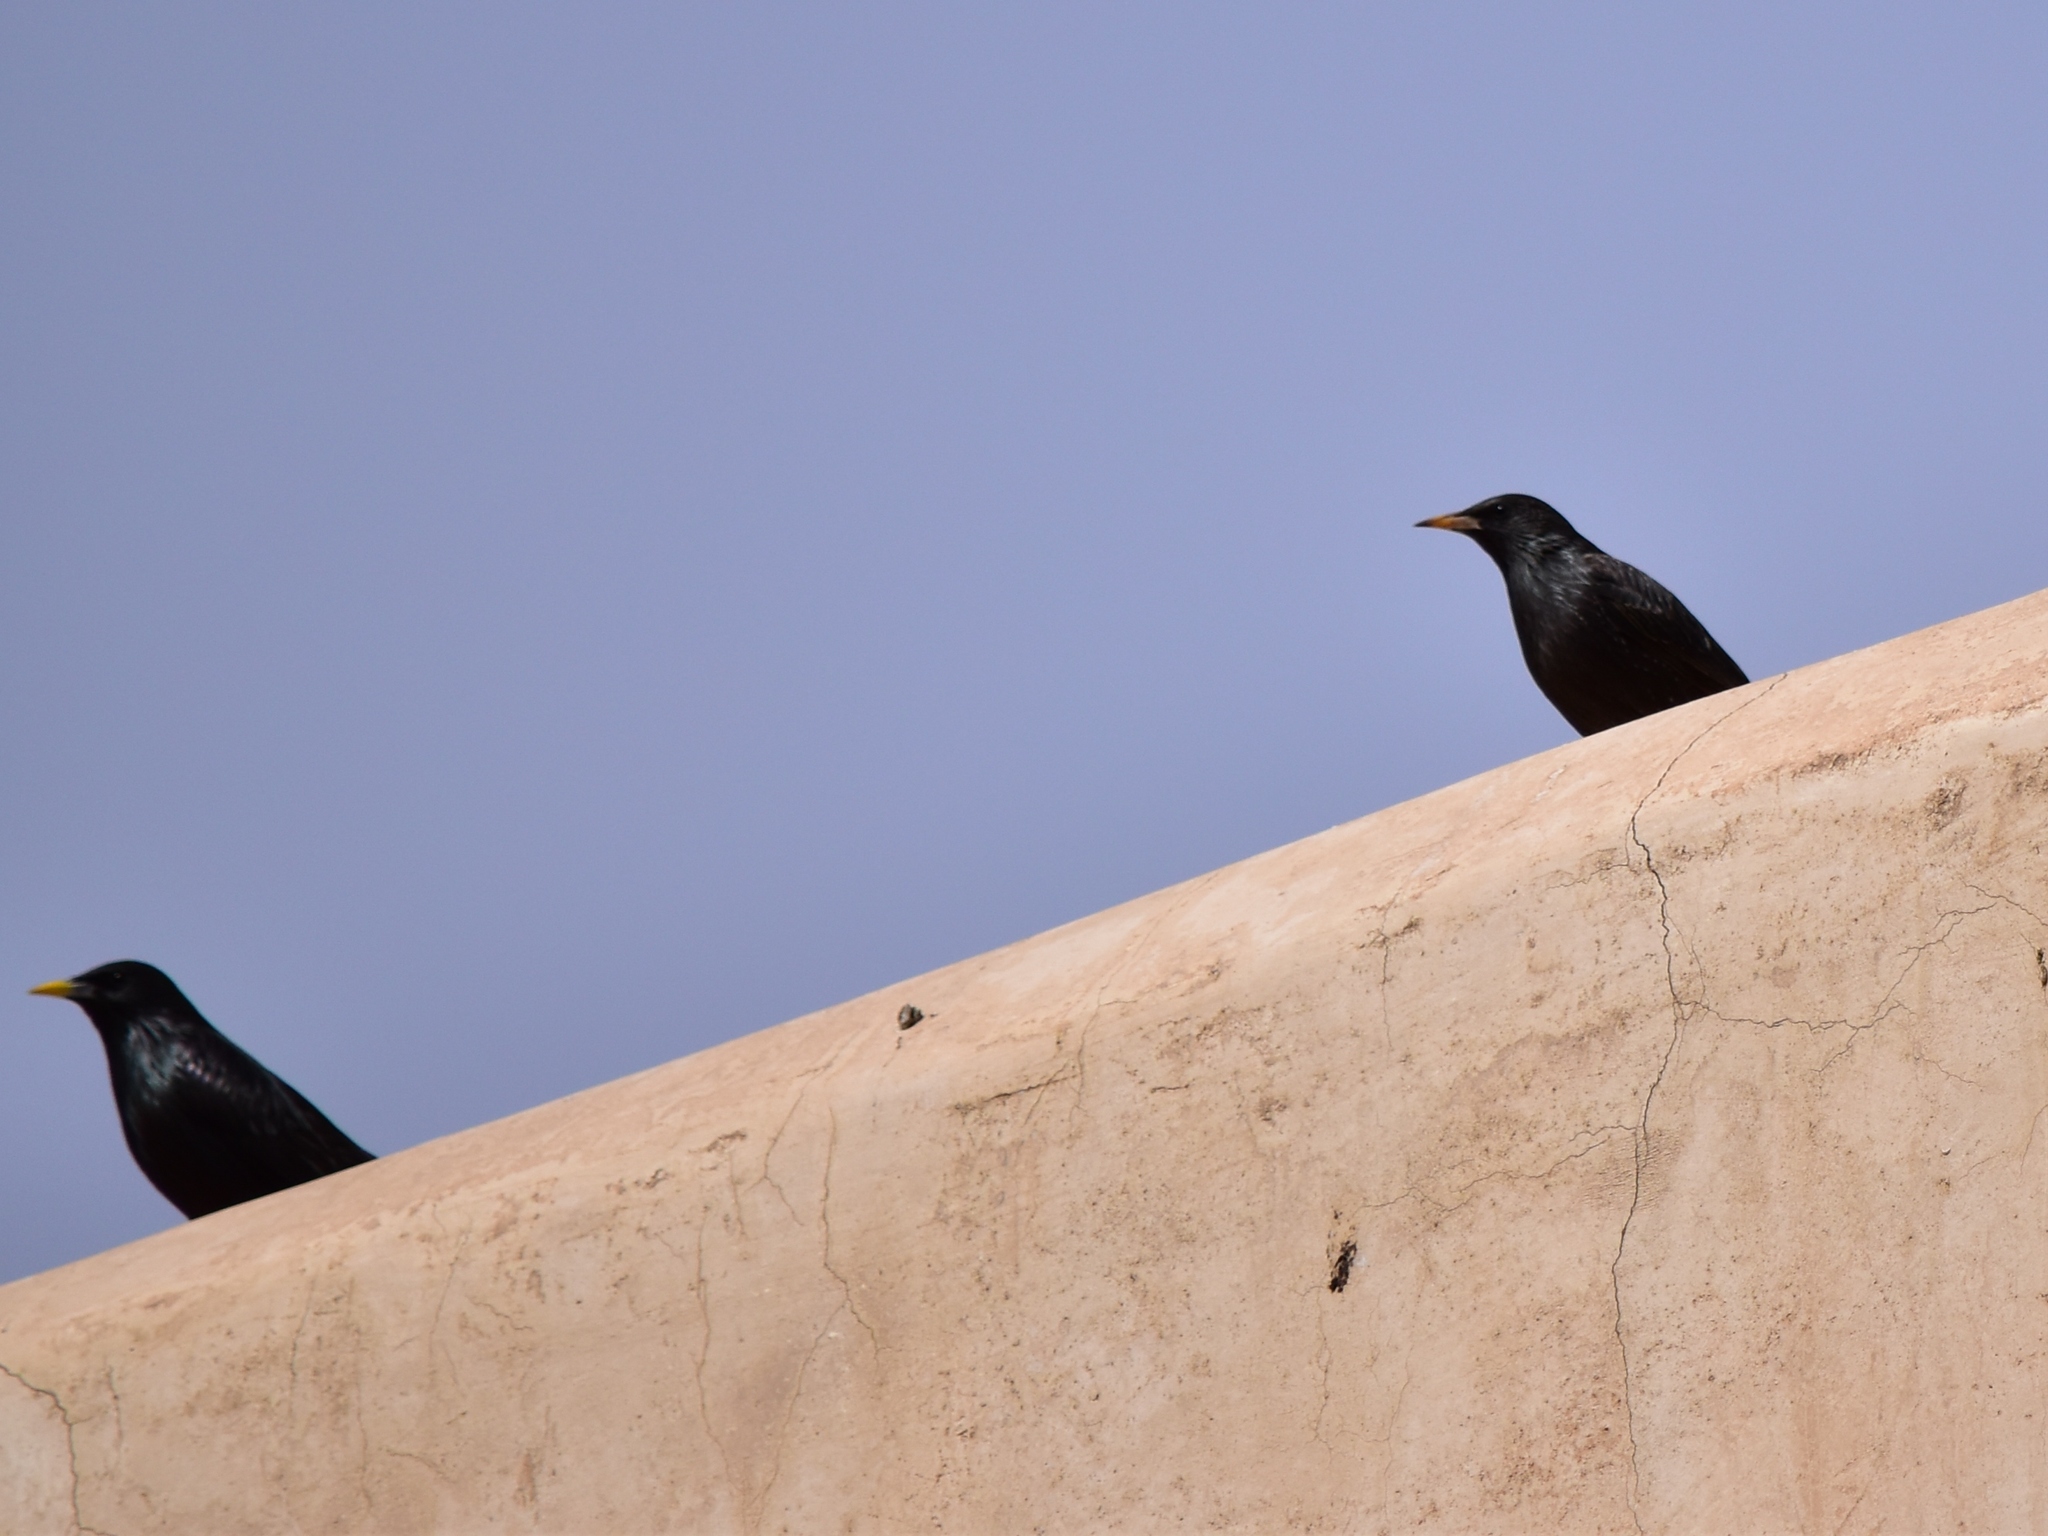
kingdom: Animalia
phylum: Chordata
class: Aves
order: Passeriformes
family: Sturnidae
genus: Sturnus
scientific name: Sturnus unicolor
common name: Spotless starling
